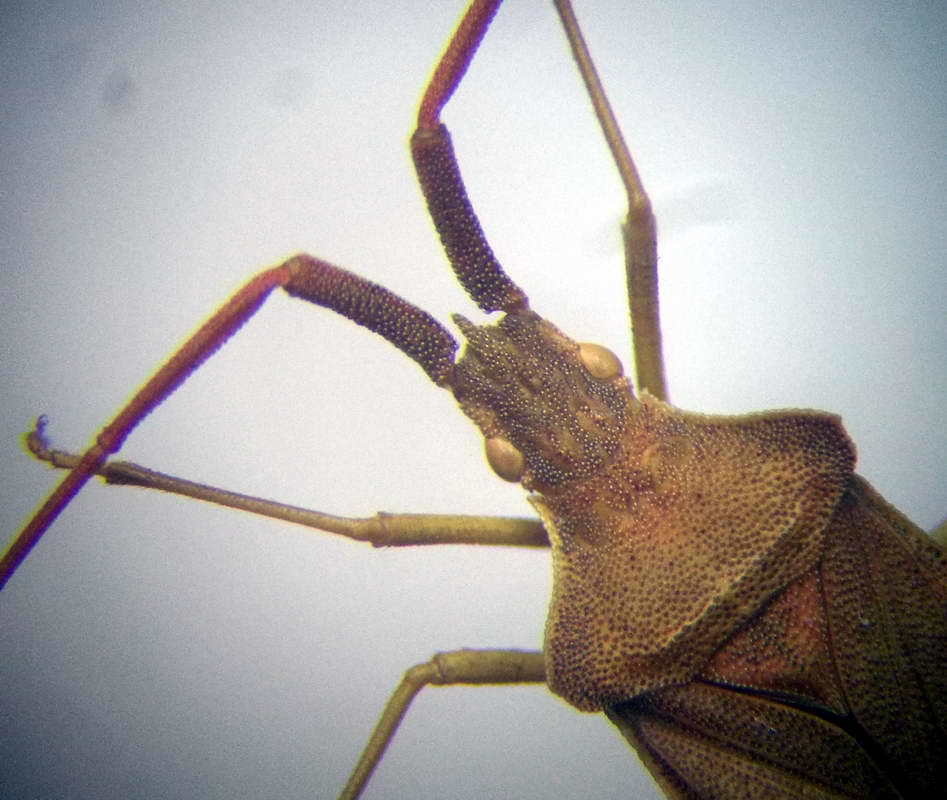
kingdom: Animalia
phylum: Arthropoda
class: Insecta
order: Hemiptera
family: Coreidae
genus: Syromastus
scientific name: Syromastus rhombeus
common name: Rhombic leatherbug
